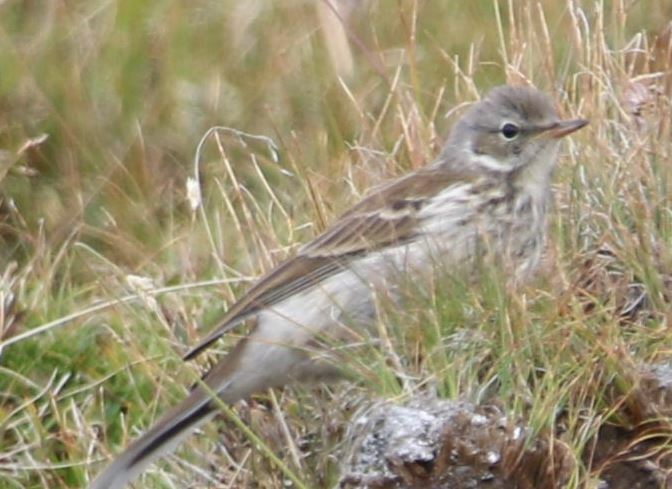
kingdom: Animalia
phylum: Chordata
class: Aves
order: Passeriformes
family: Motacillidae
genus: Anthus
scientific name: Anthus spinoletta
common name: Water pipit
